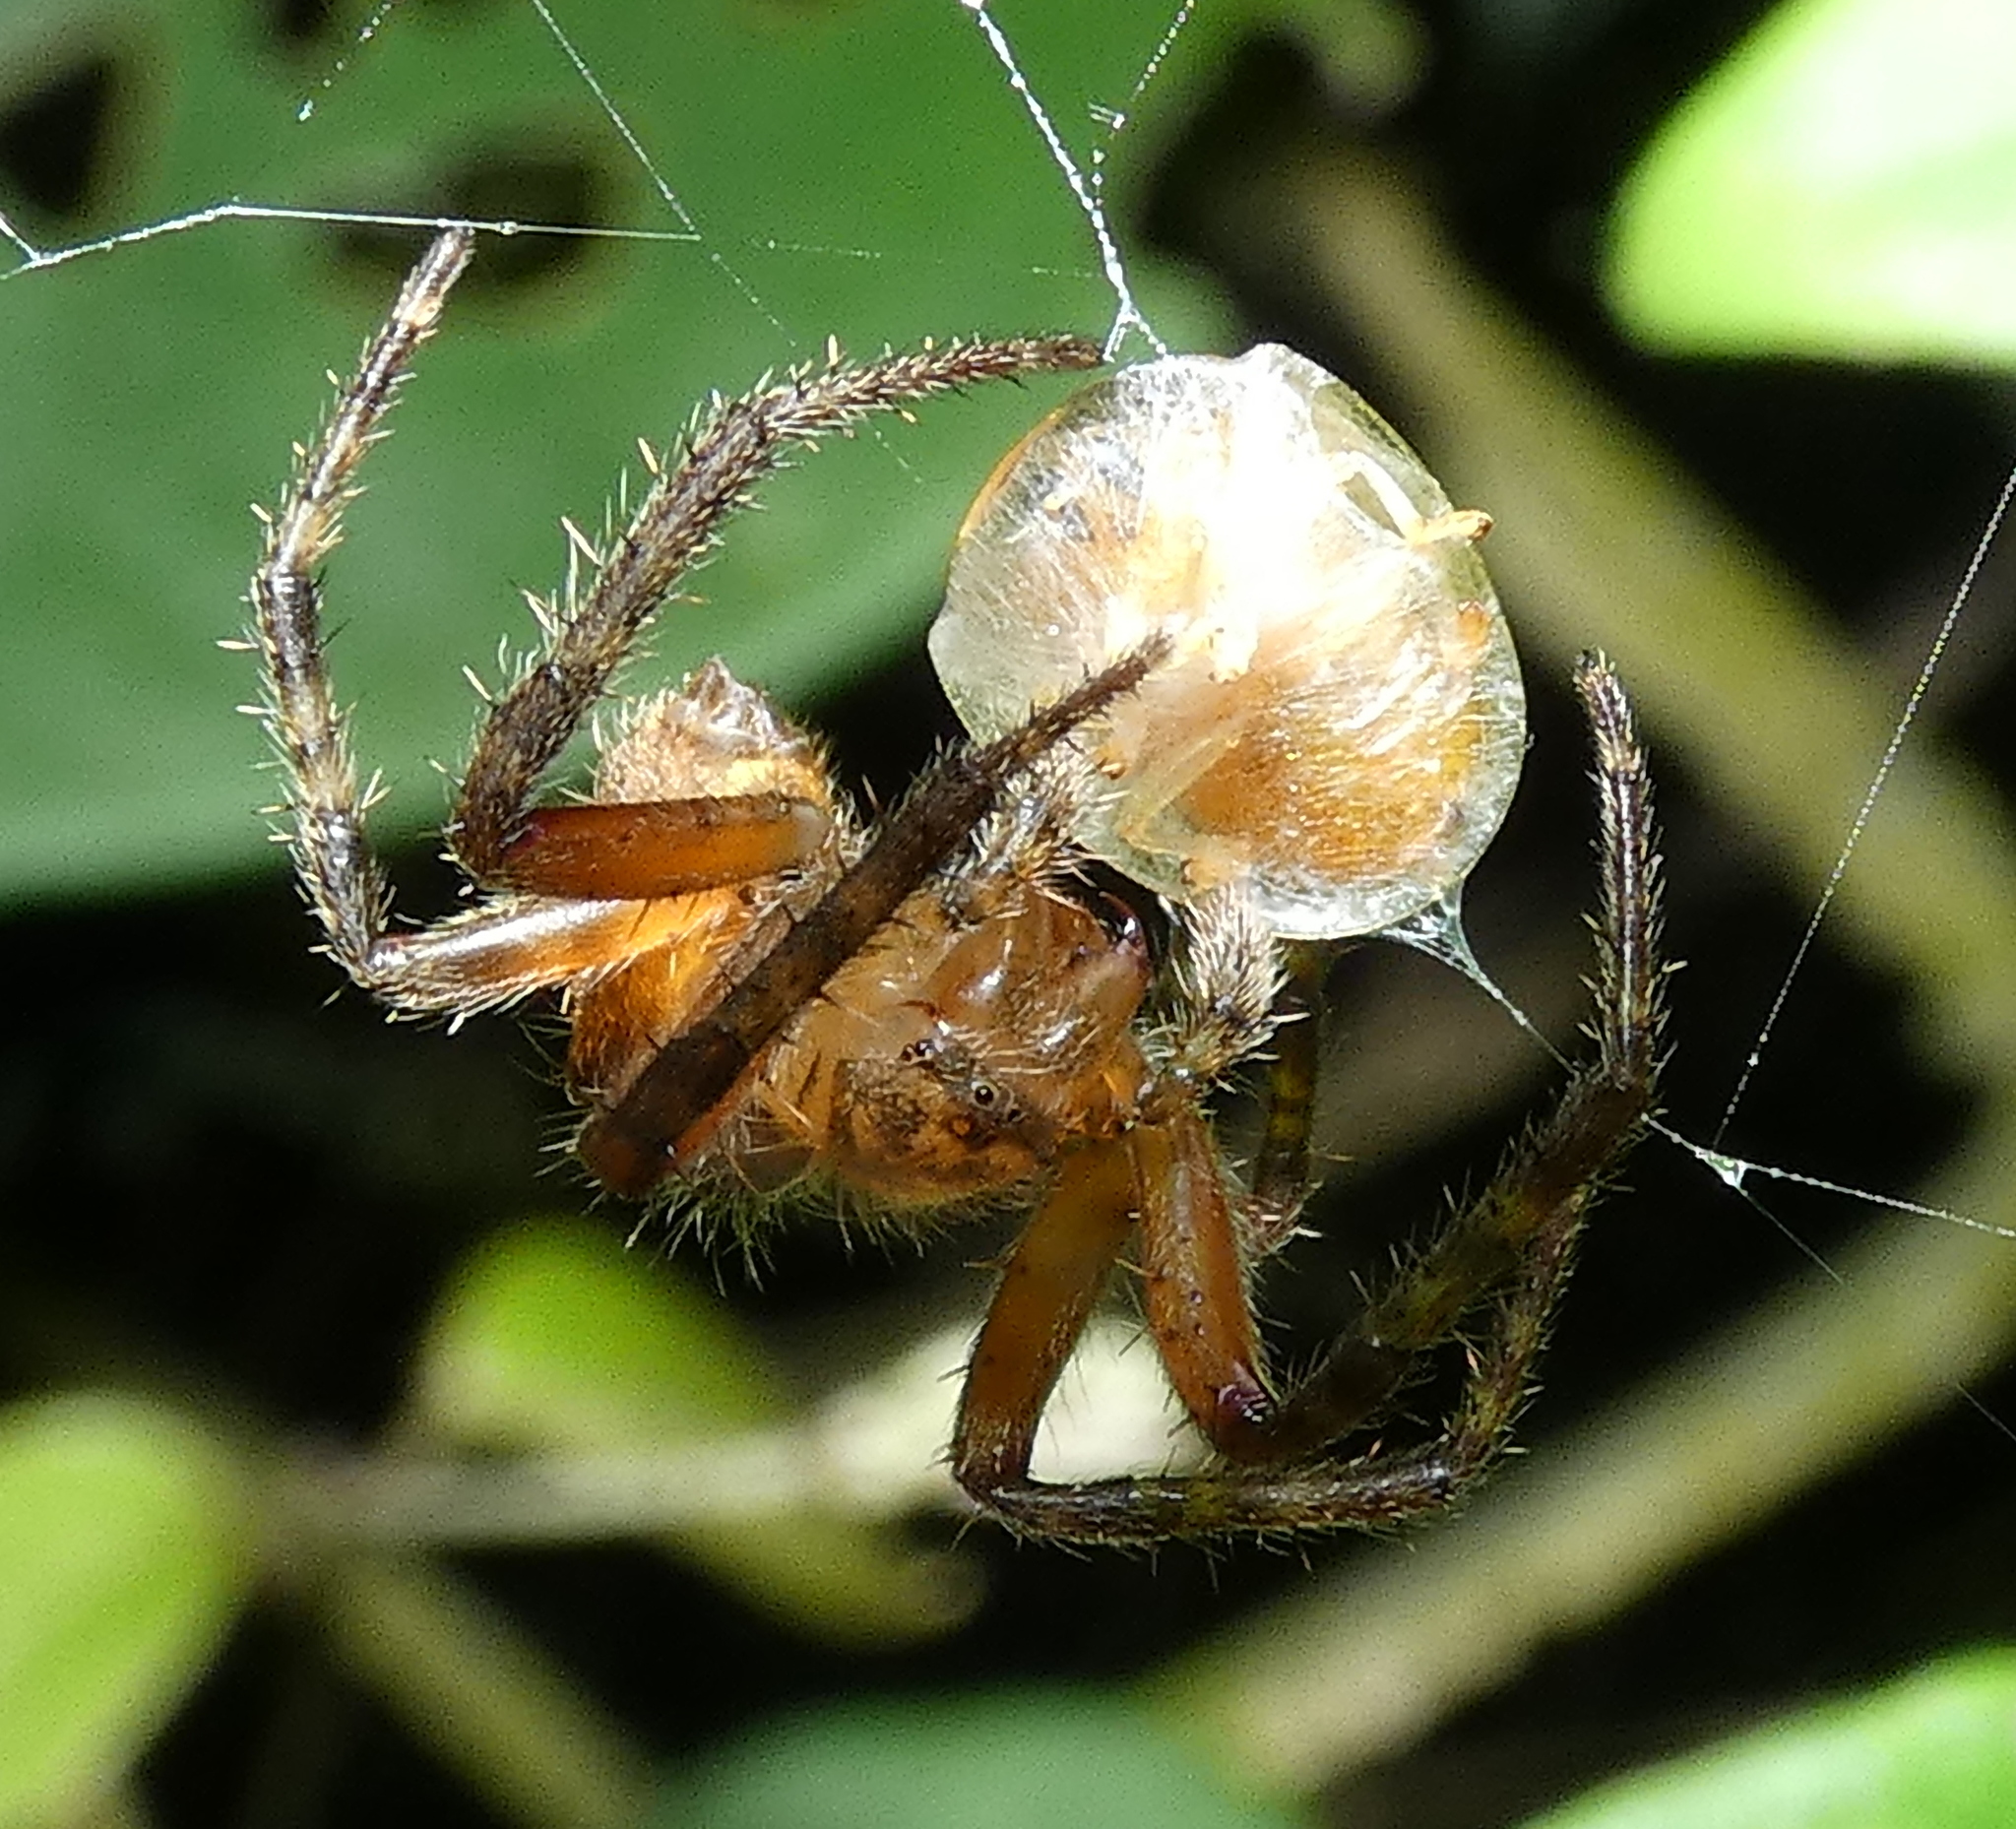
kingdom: Animalia
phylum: Arthropoda
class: Insecta
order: Coleoptera
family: Chrysomelidae
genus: Microctenochira
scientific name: Microctenochira quadrata
